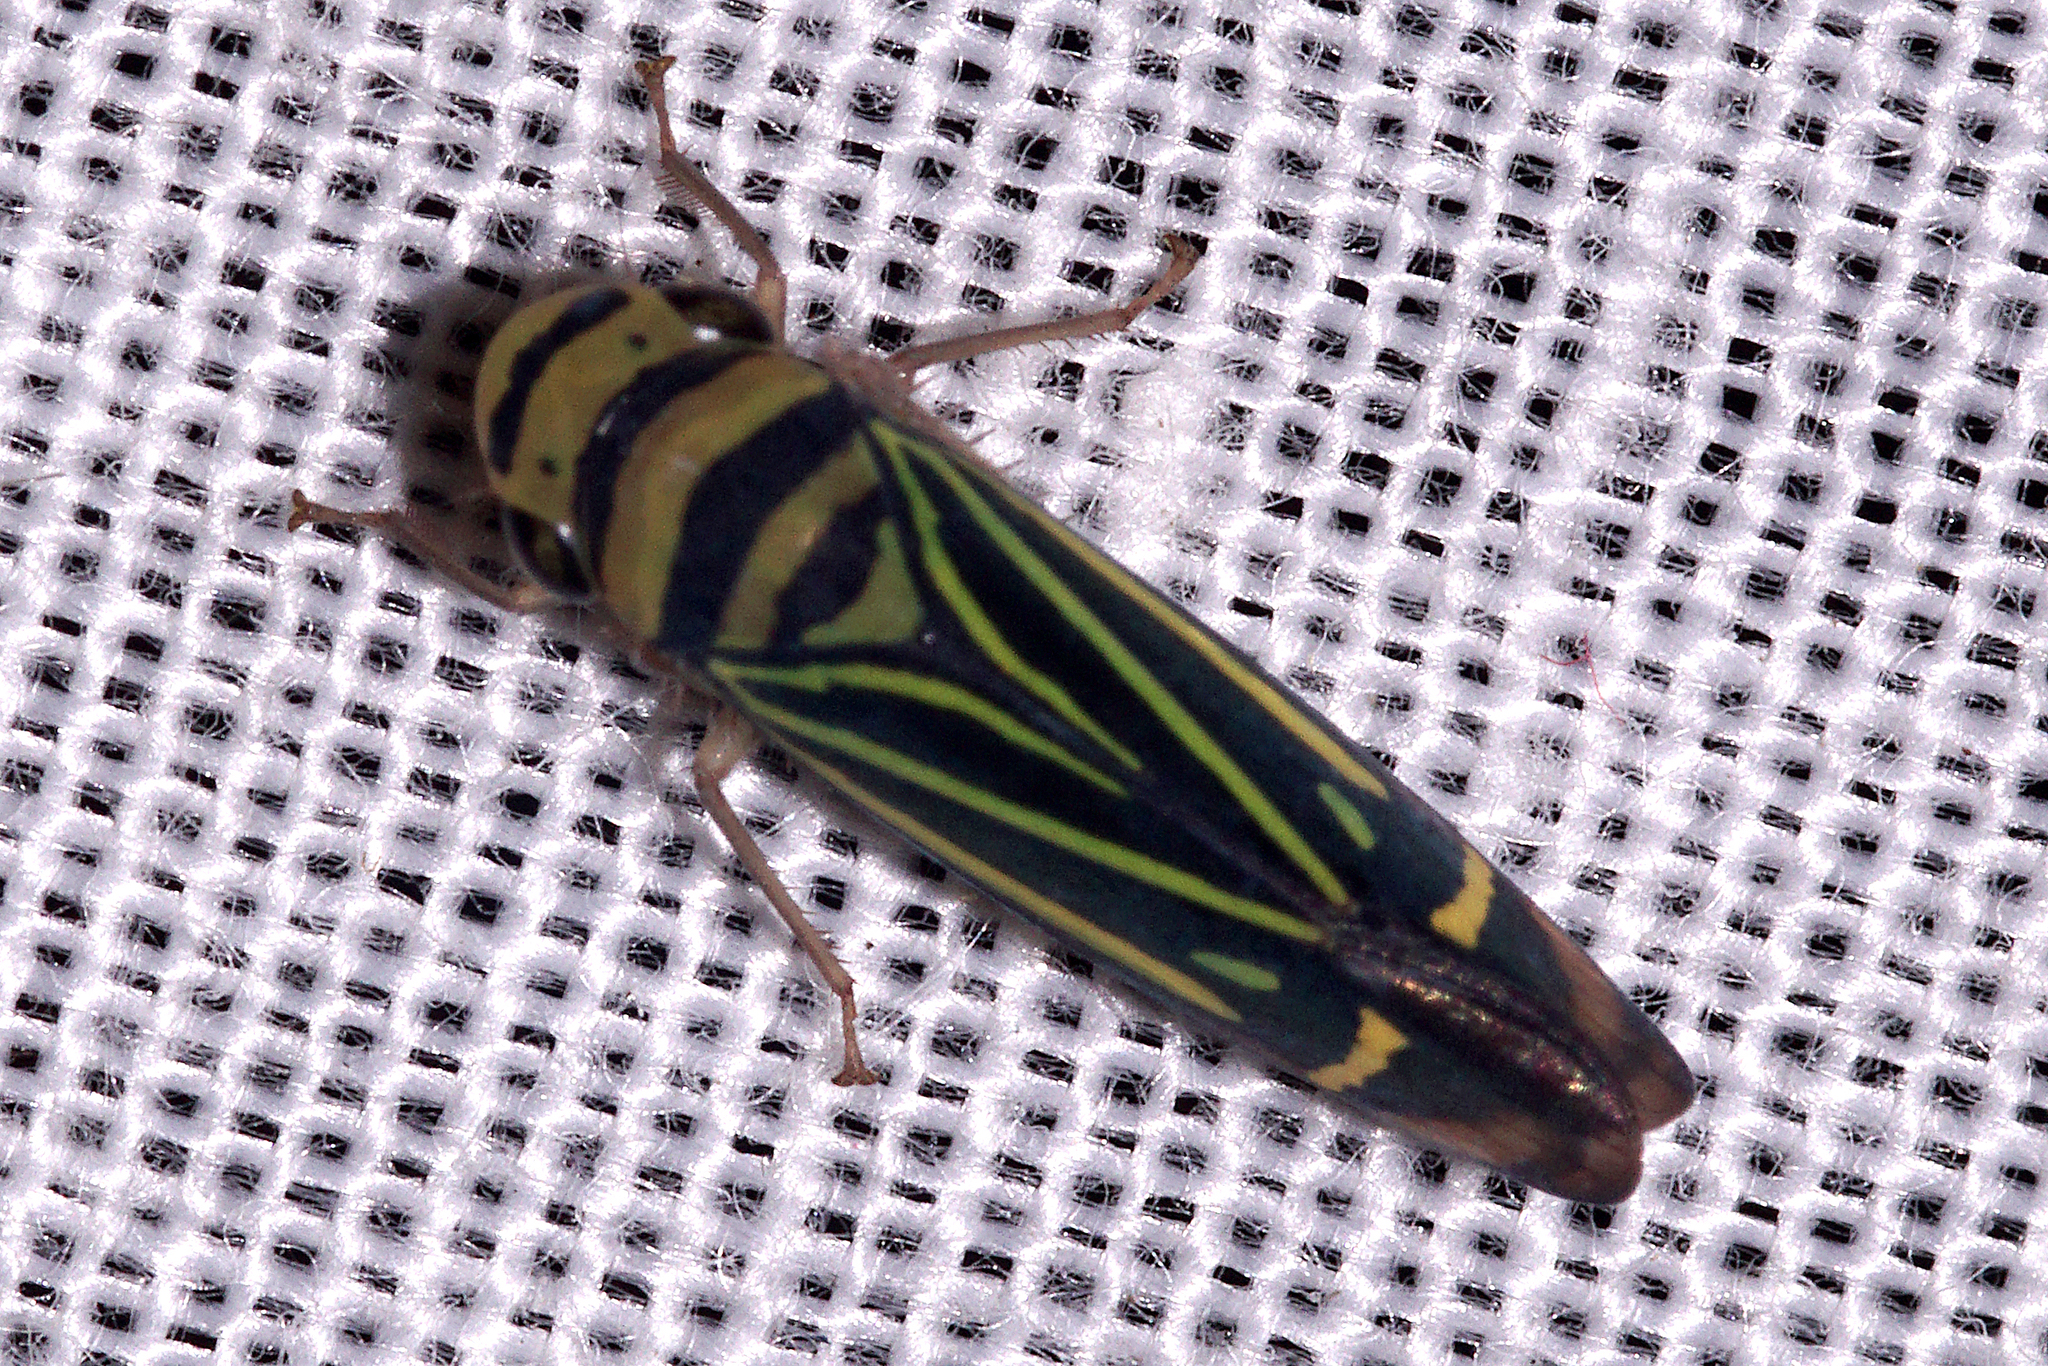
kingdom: Animalia
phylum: Arthropoda
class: Insecta
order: Hemiptera
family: Cicadellidae
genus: Dilobopterus
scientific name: Dilobopterus guadulpensis
